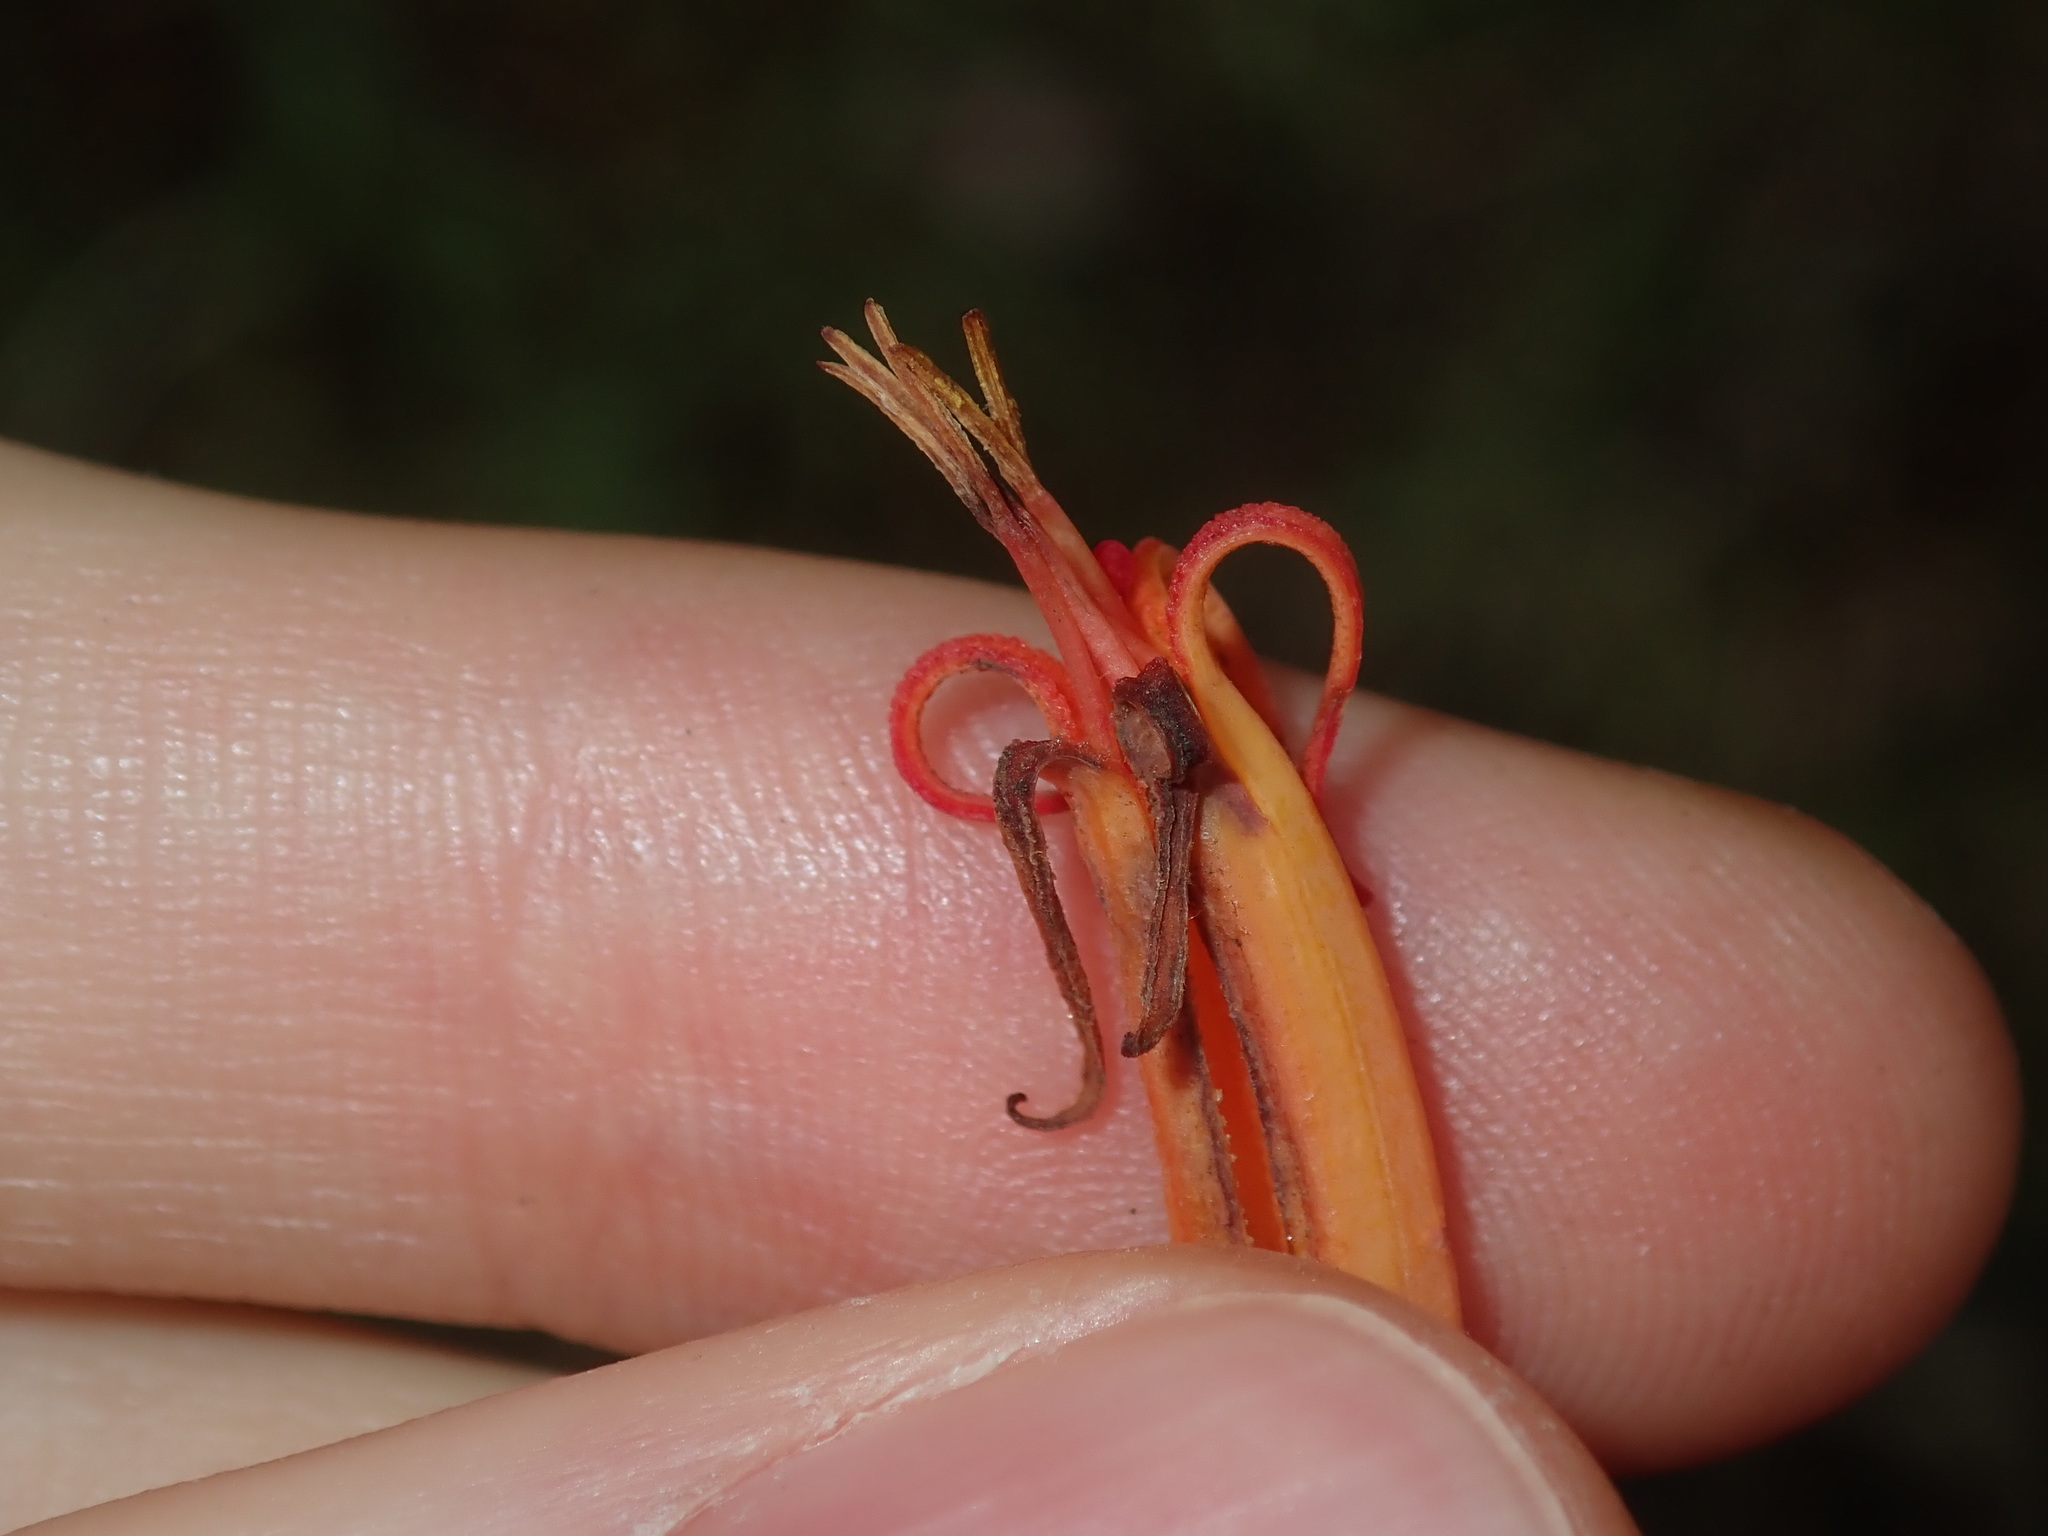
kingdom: Plantae
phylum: Tracheophyta
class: Magnoliopsida
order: Santalales
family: Loranthaceae
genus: Dendrophthoe
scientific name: Dendrophthoe vitellina
